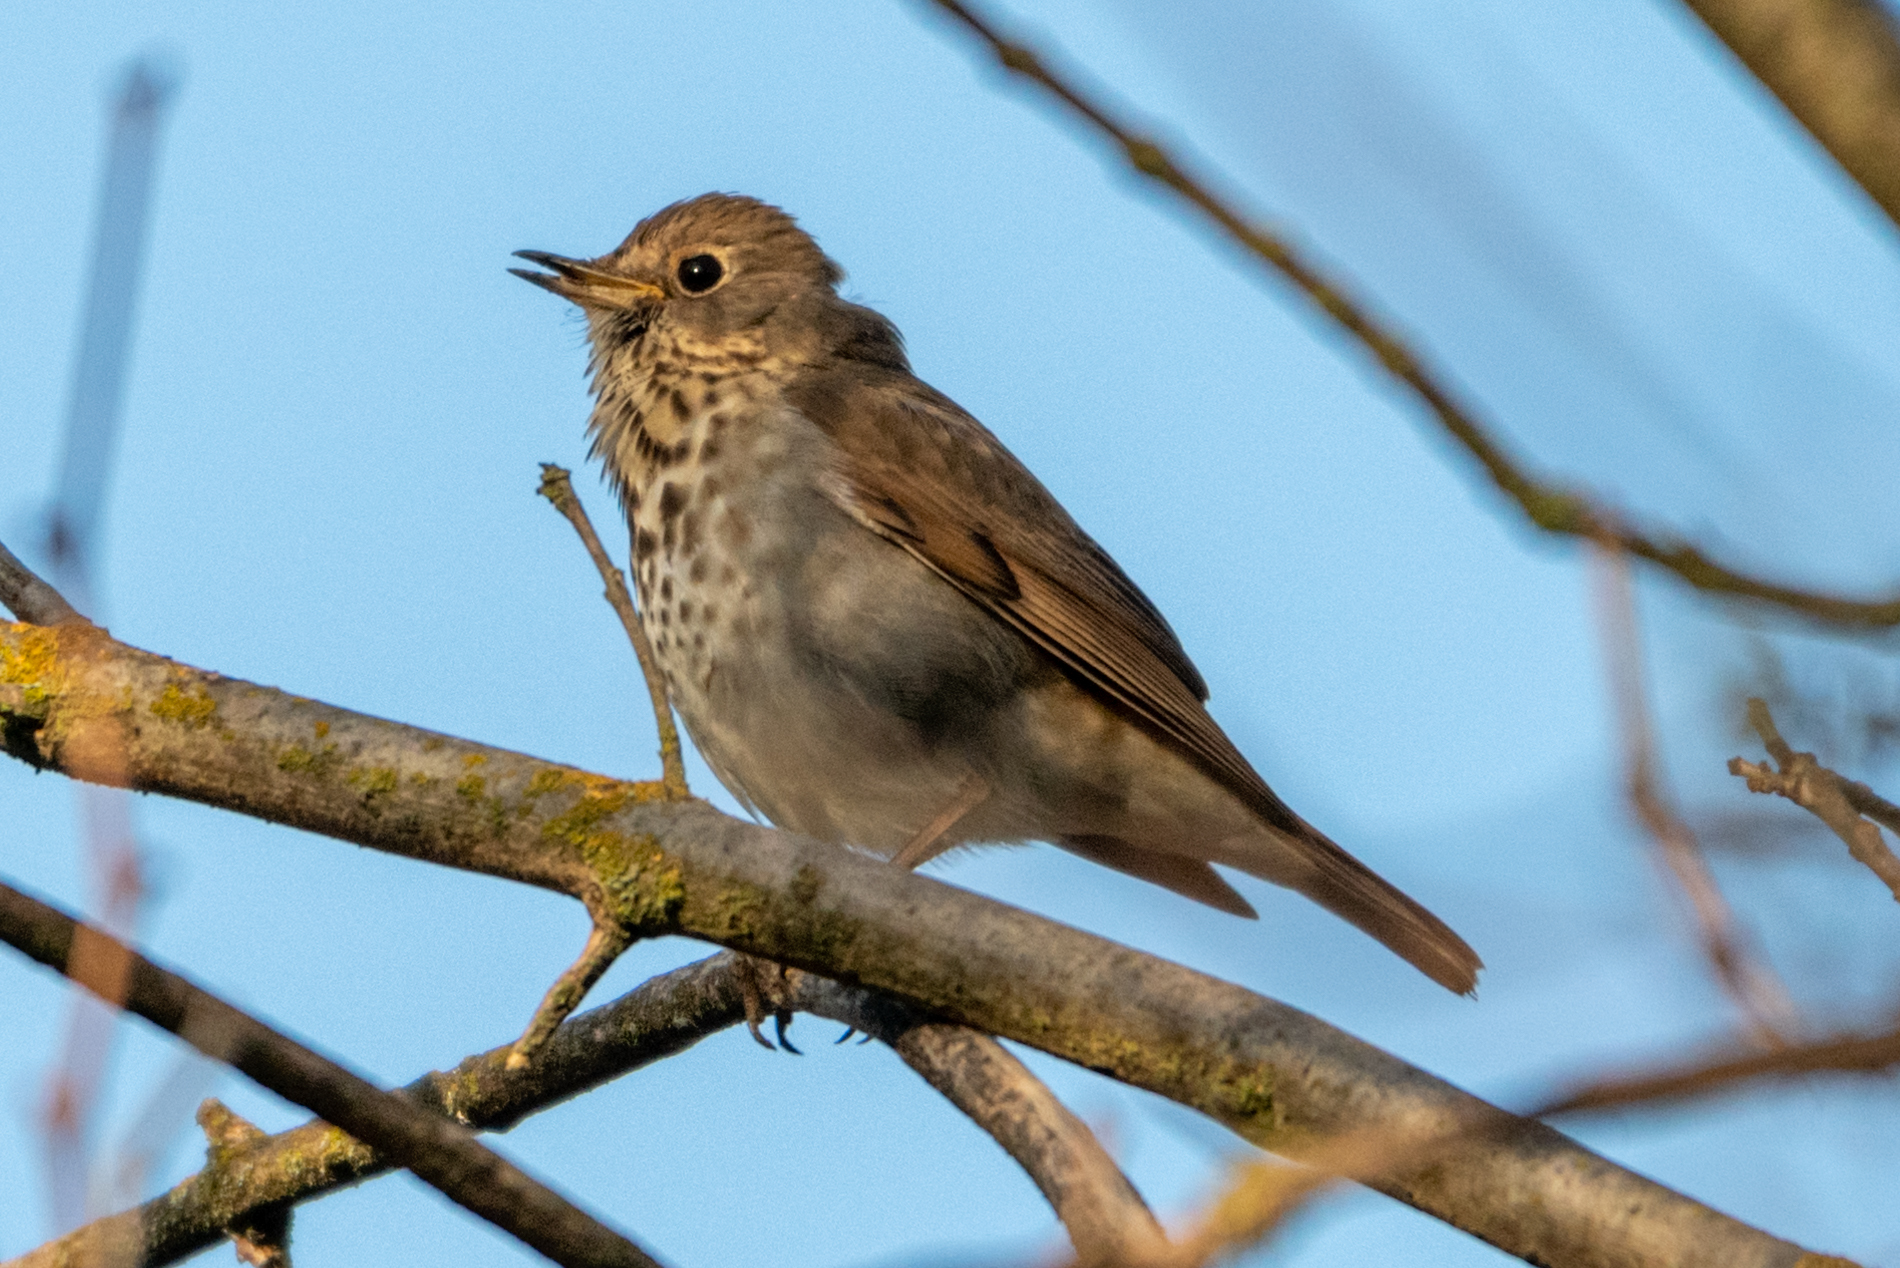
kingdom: Animalia
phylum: Chordata
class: Aves
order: Passeriformes
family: Turdidae
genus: Catharus
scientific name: Catharus guttatus
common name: Hermit thrush
